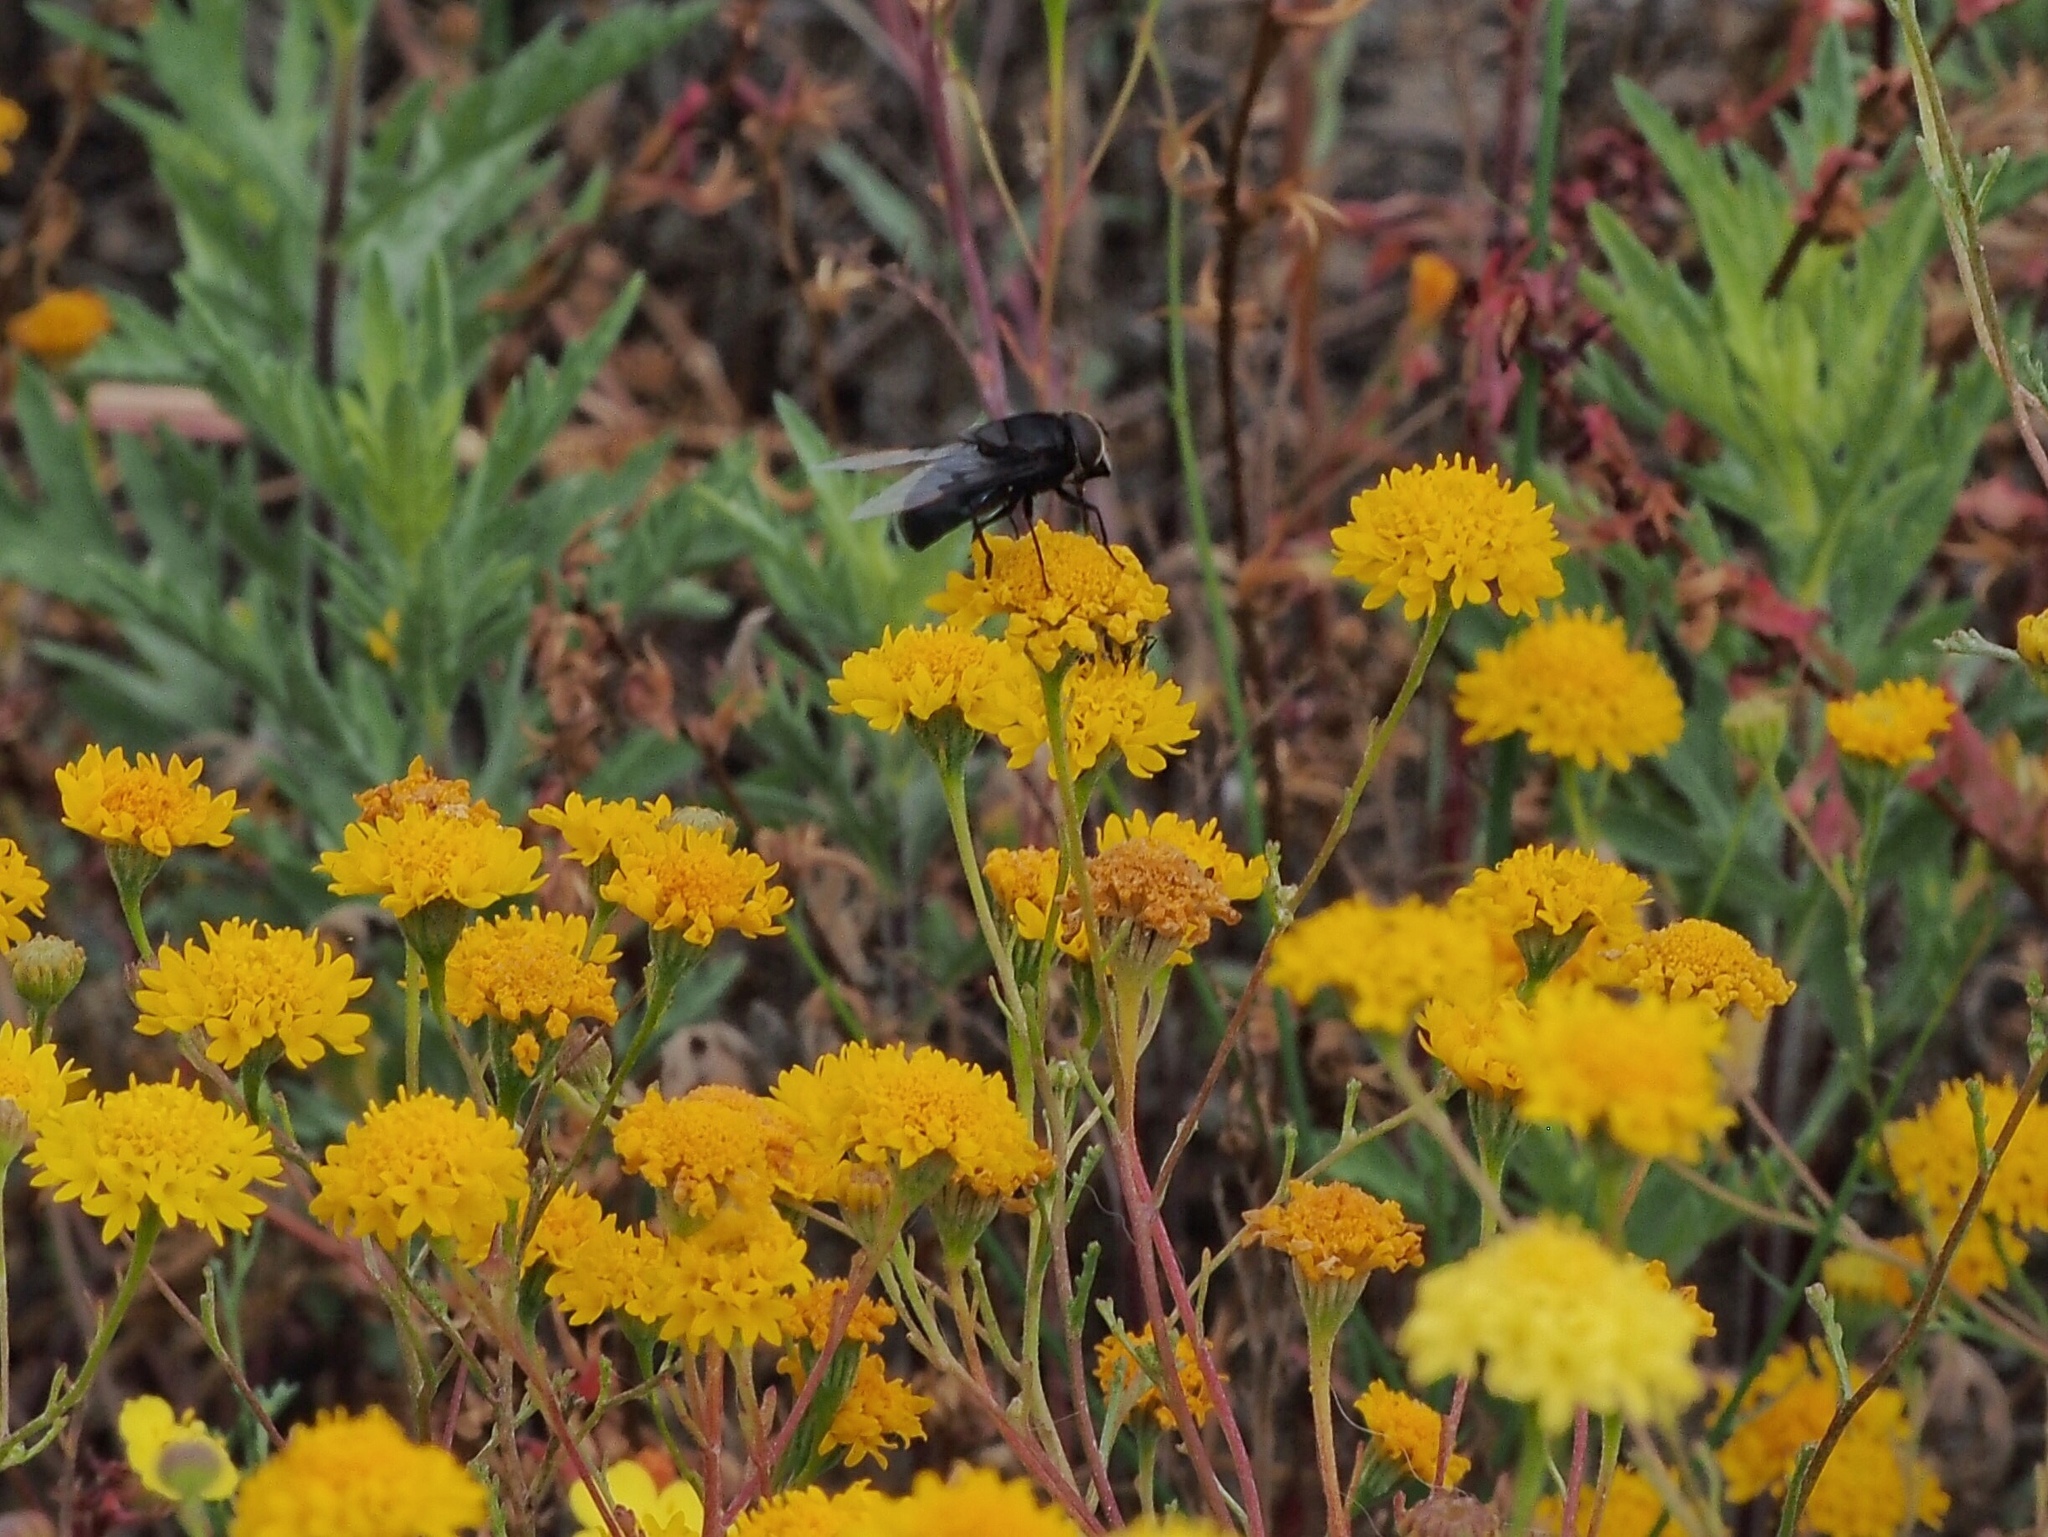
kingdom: Animalia
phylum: Arthropoda
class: Insecta
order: Diptera
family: Syrphidae
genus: Copestylum
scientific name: Copestylum
